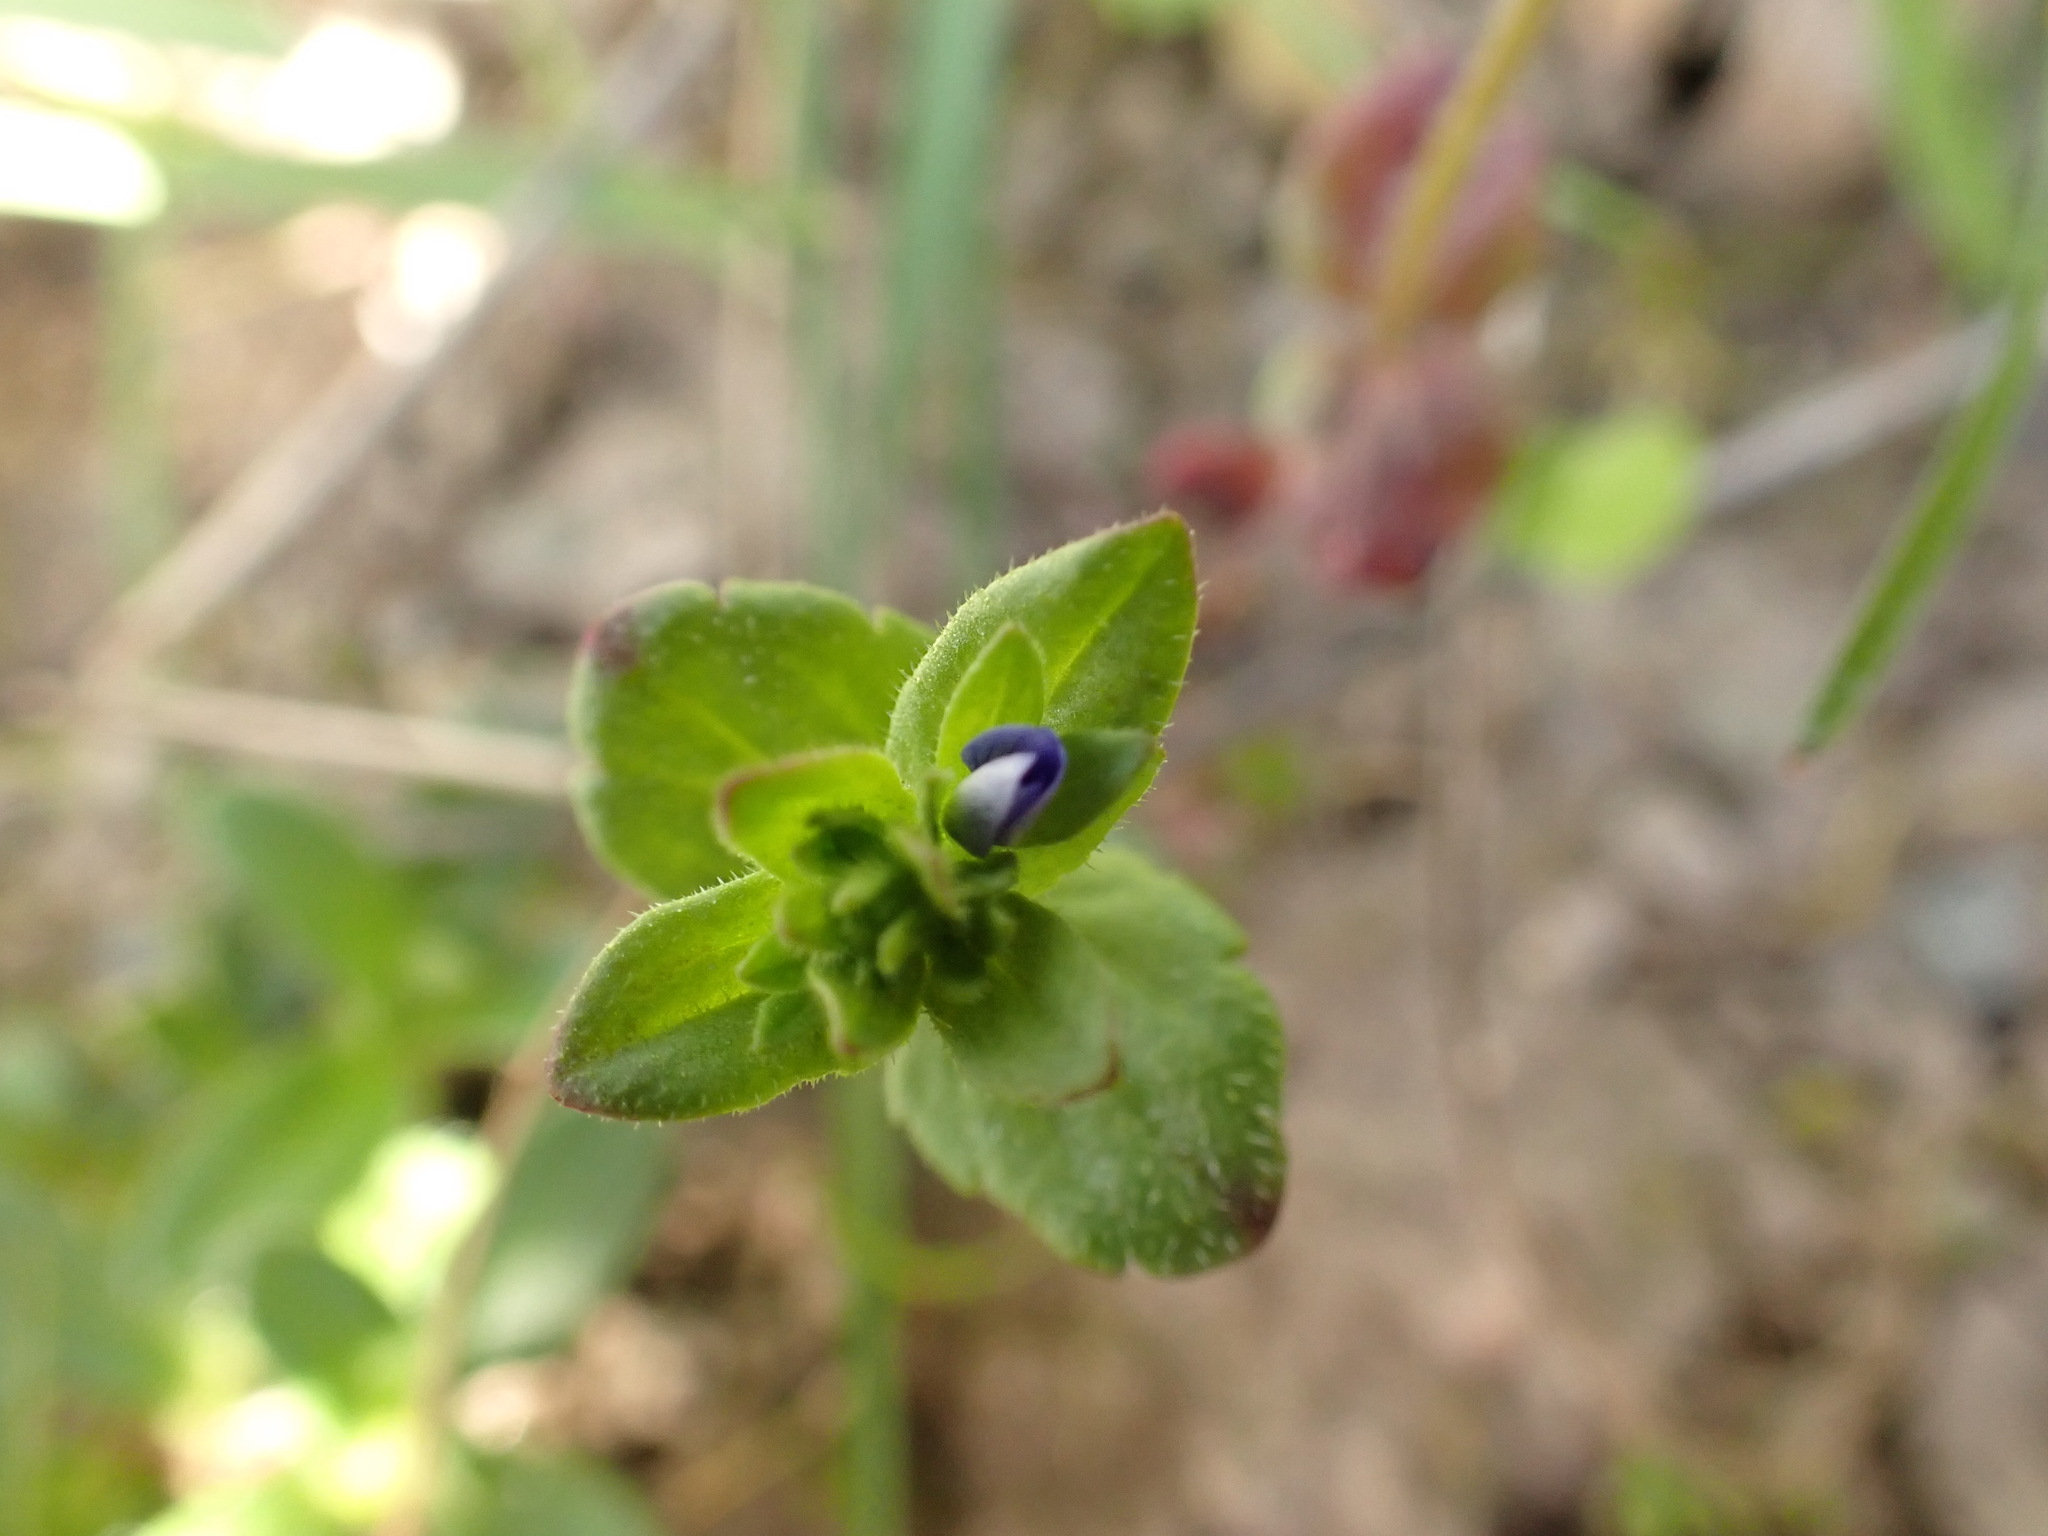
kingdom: Plantae
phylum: Tracheophyta
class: Magnoliopsida
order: Lamiales
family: Plantaginaceae
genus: Veronica
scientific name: Veronica arvensis
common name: Corn speedwell
